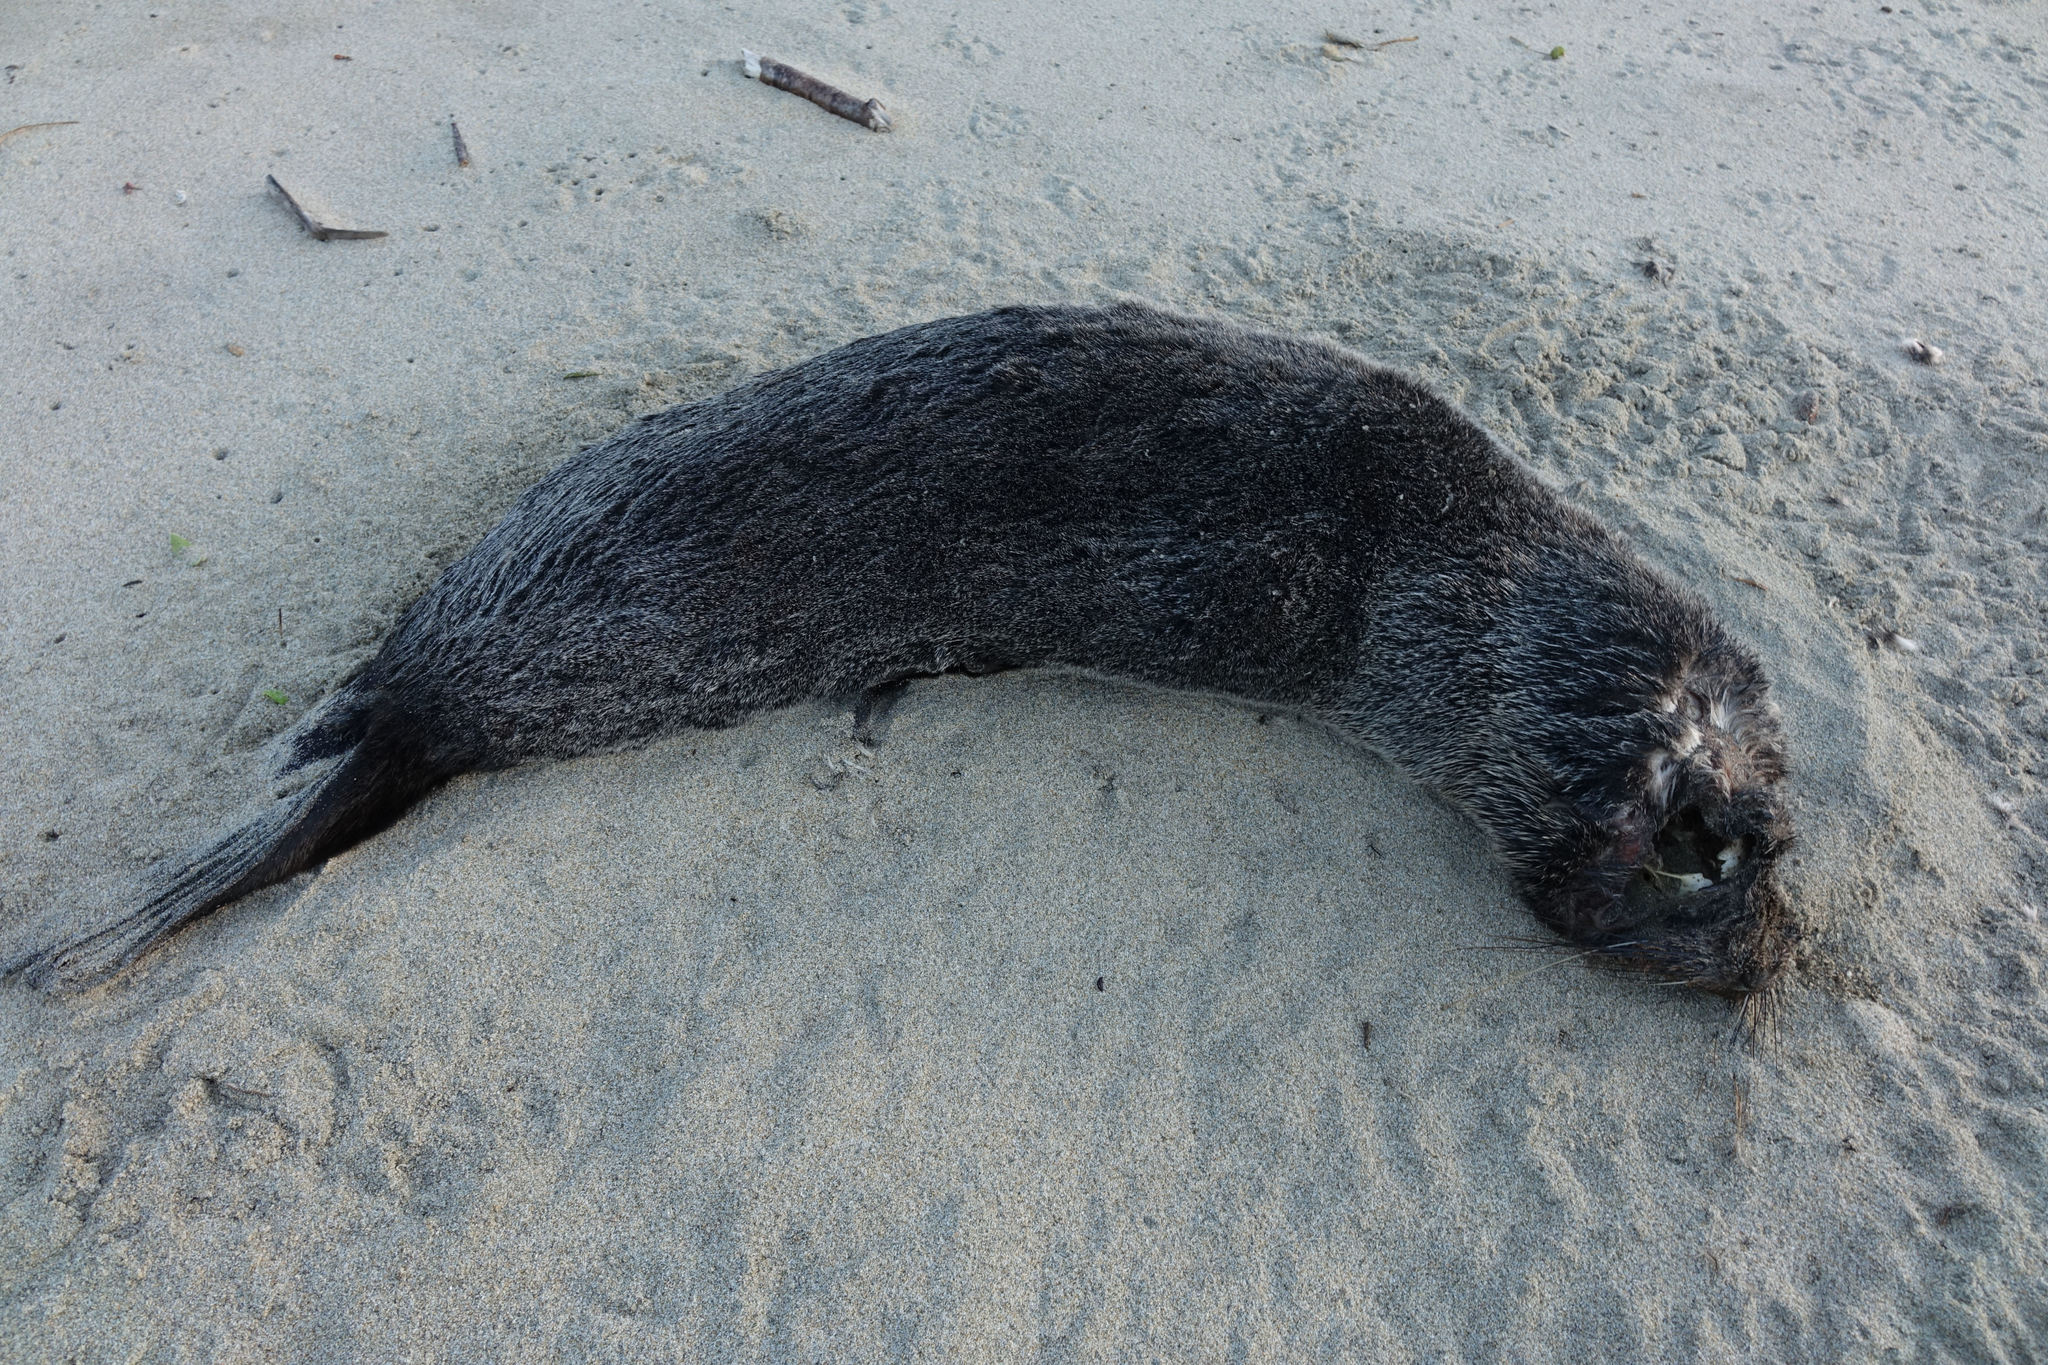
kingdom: Animalia
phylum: Chordata
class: Mammalia
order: Carnivora
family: Otariidae
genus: Arctocephalus
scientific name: Arctocephalus forsteri
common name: New zealand fur seal
